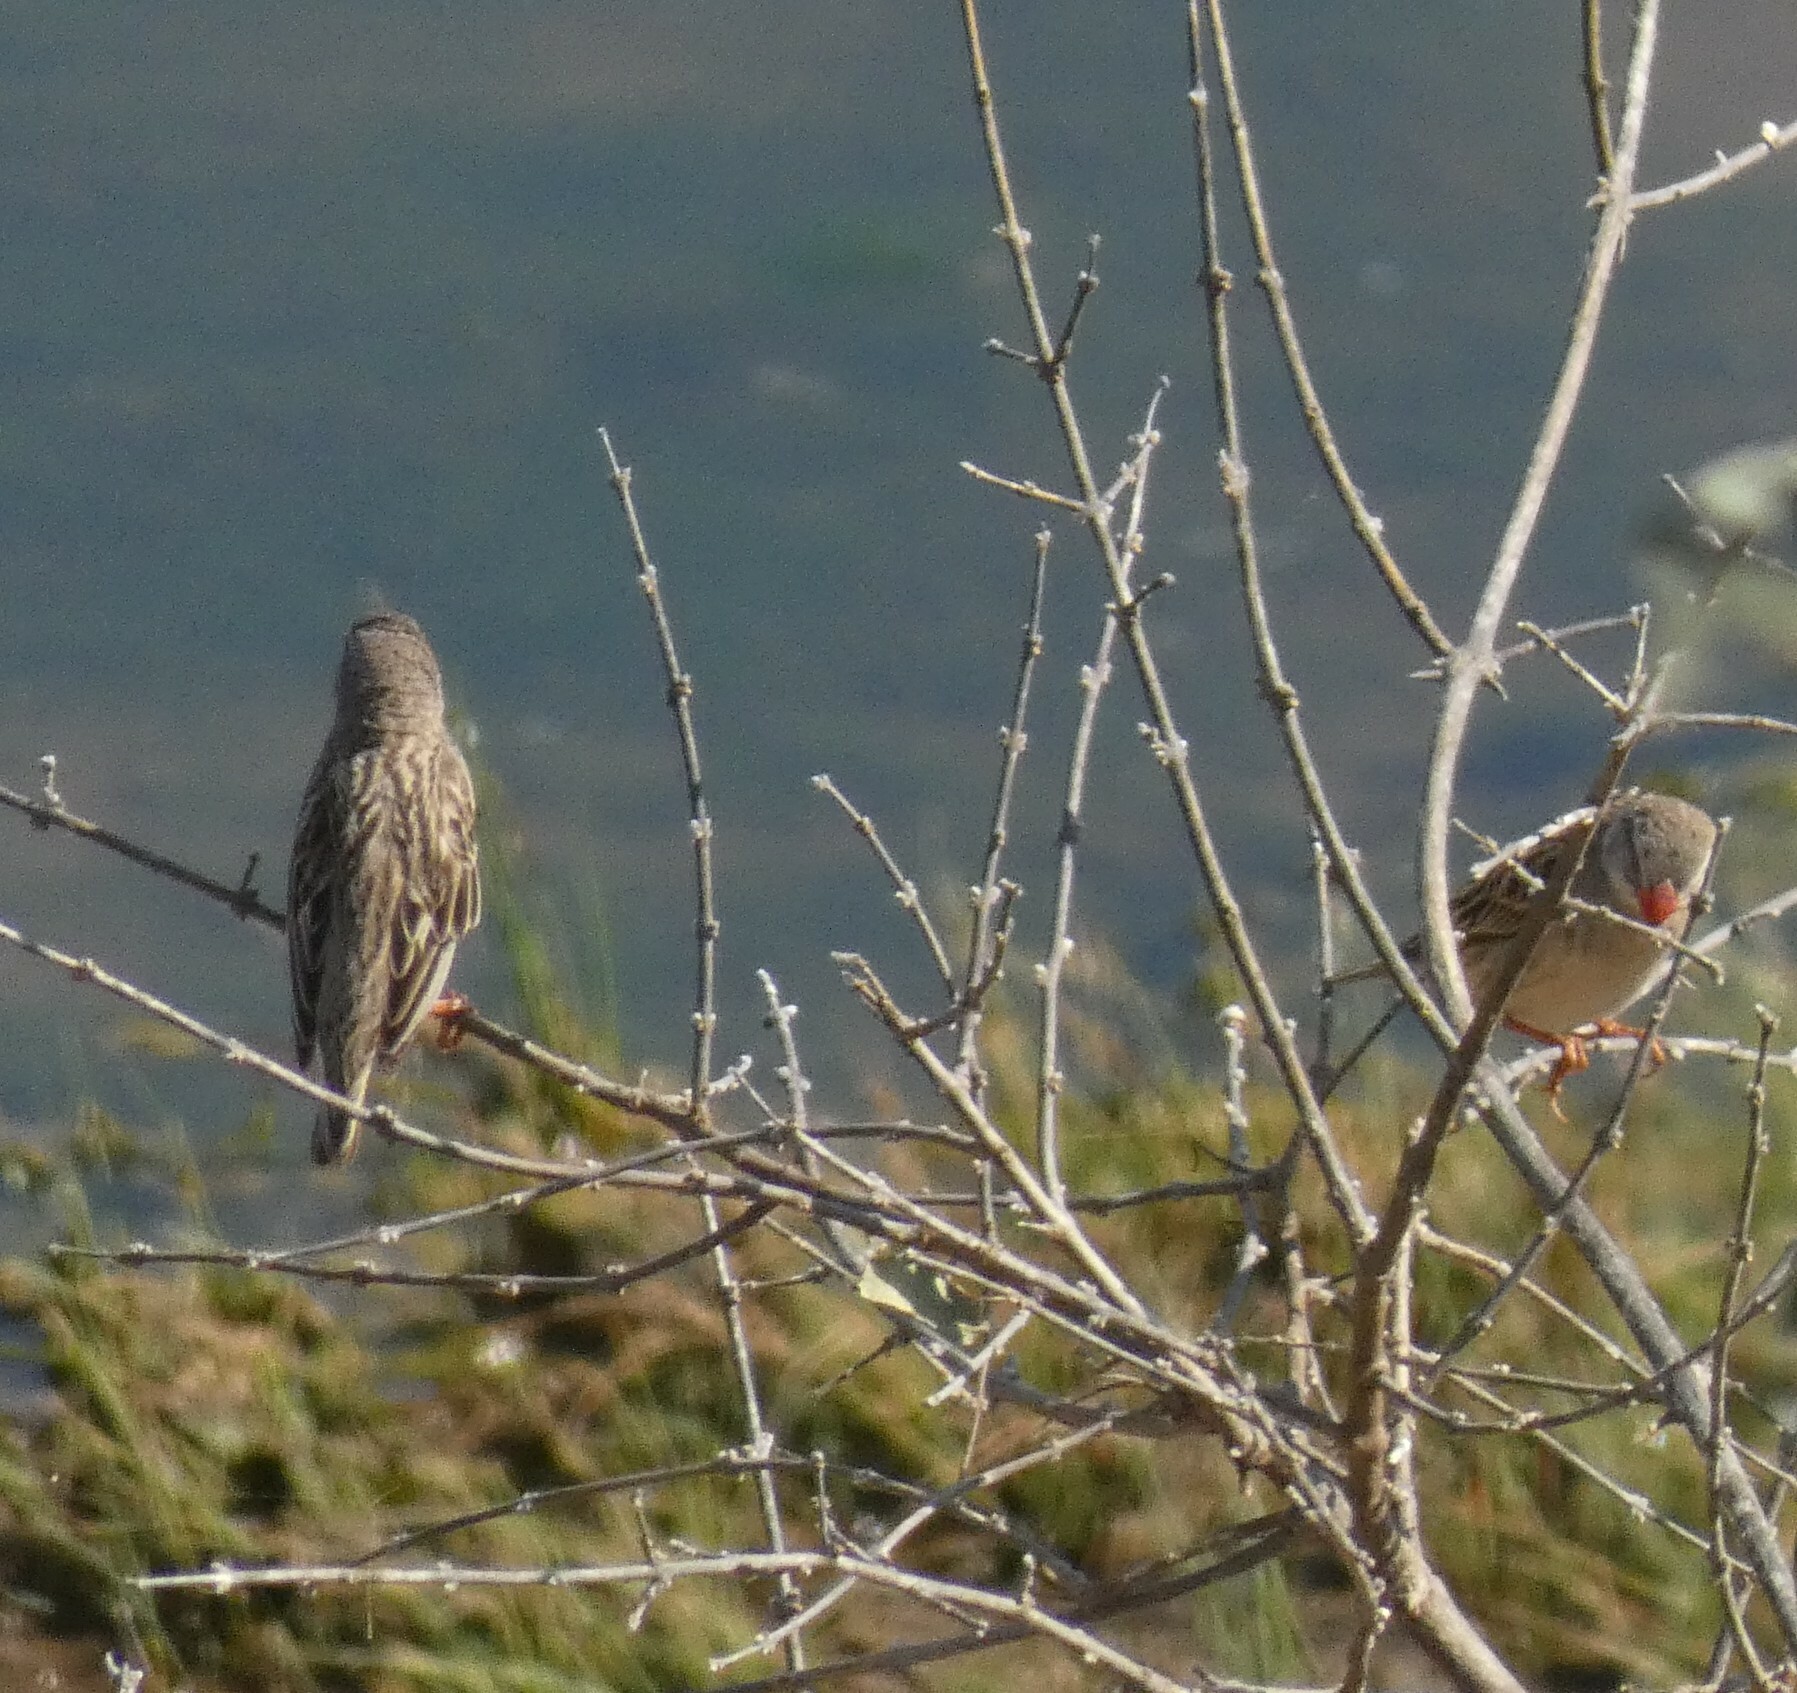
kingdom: Animalia
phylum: Chordata
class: Aves
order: Passeriformes
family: Ploceidae
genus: Quelea
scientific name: Quelea quelea
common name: Red-billed quelea
